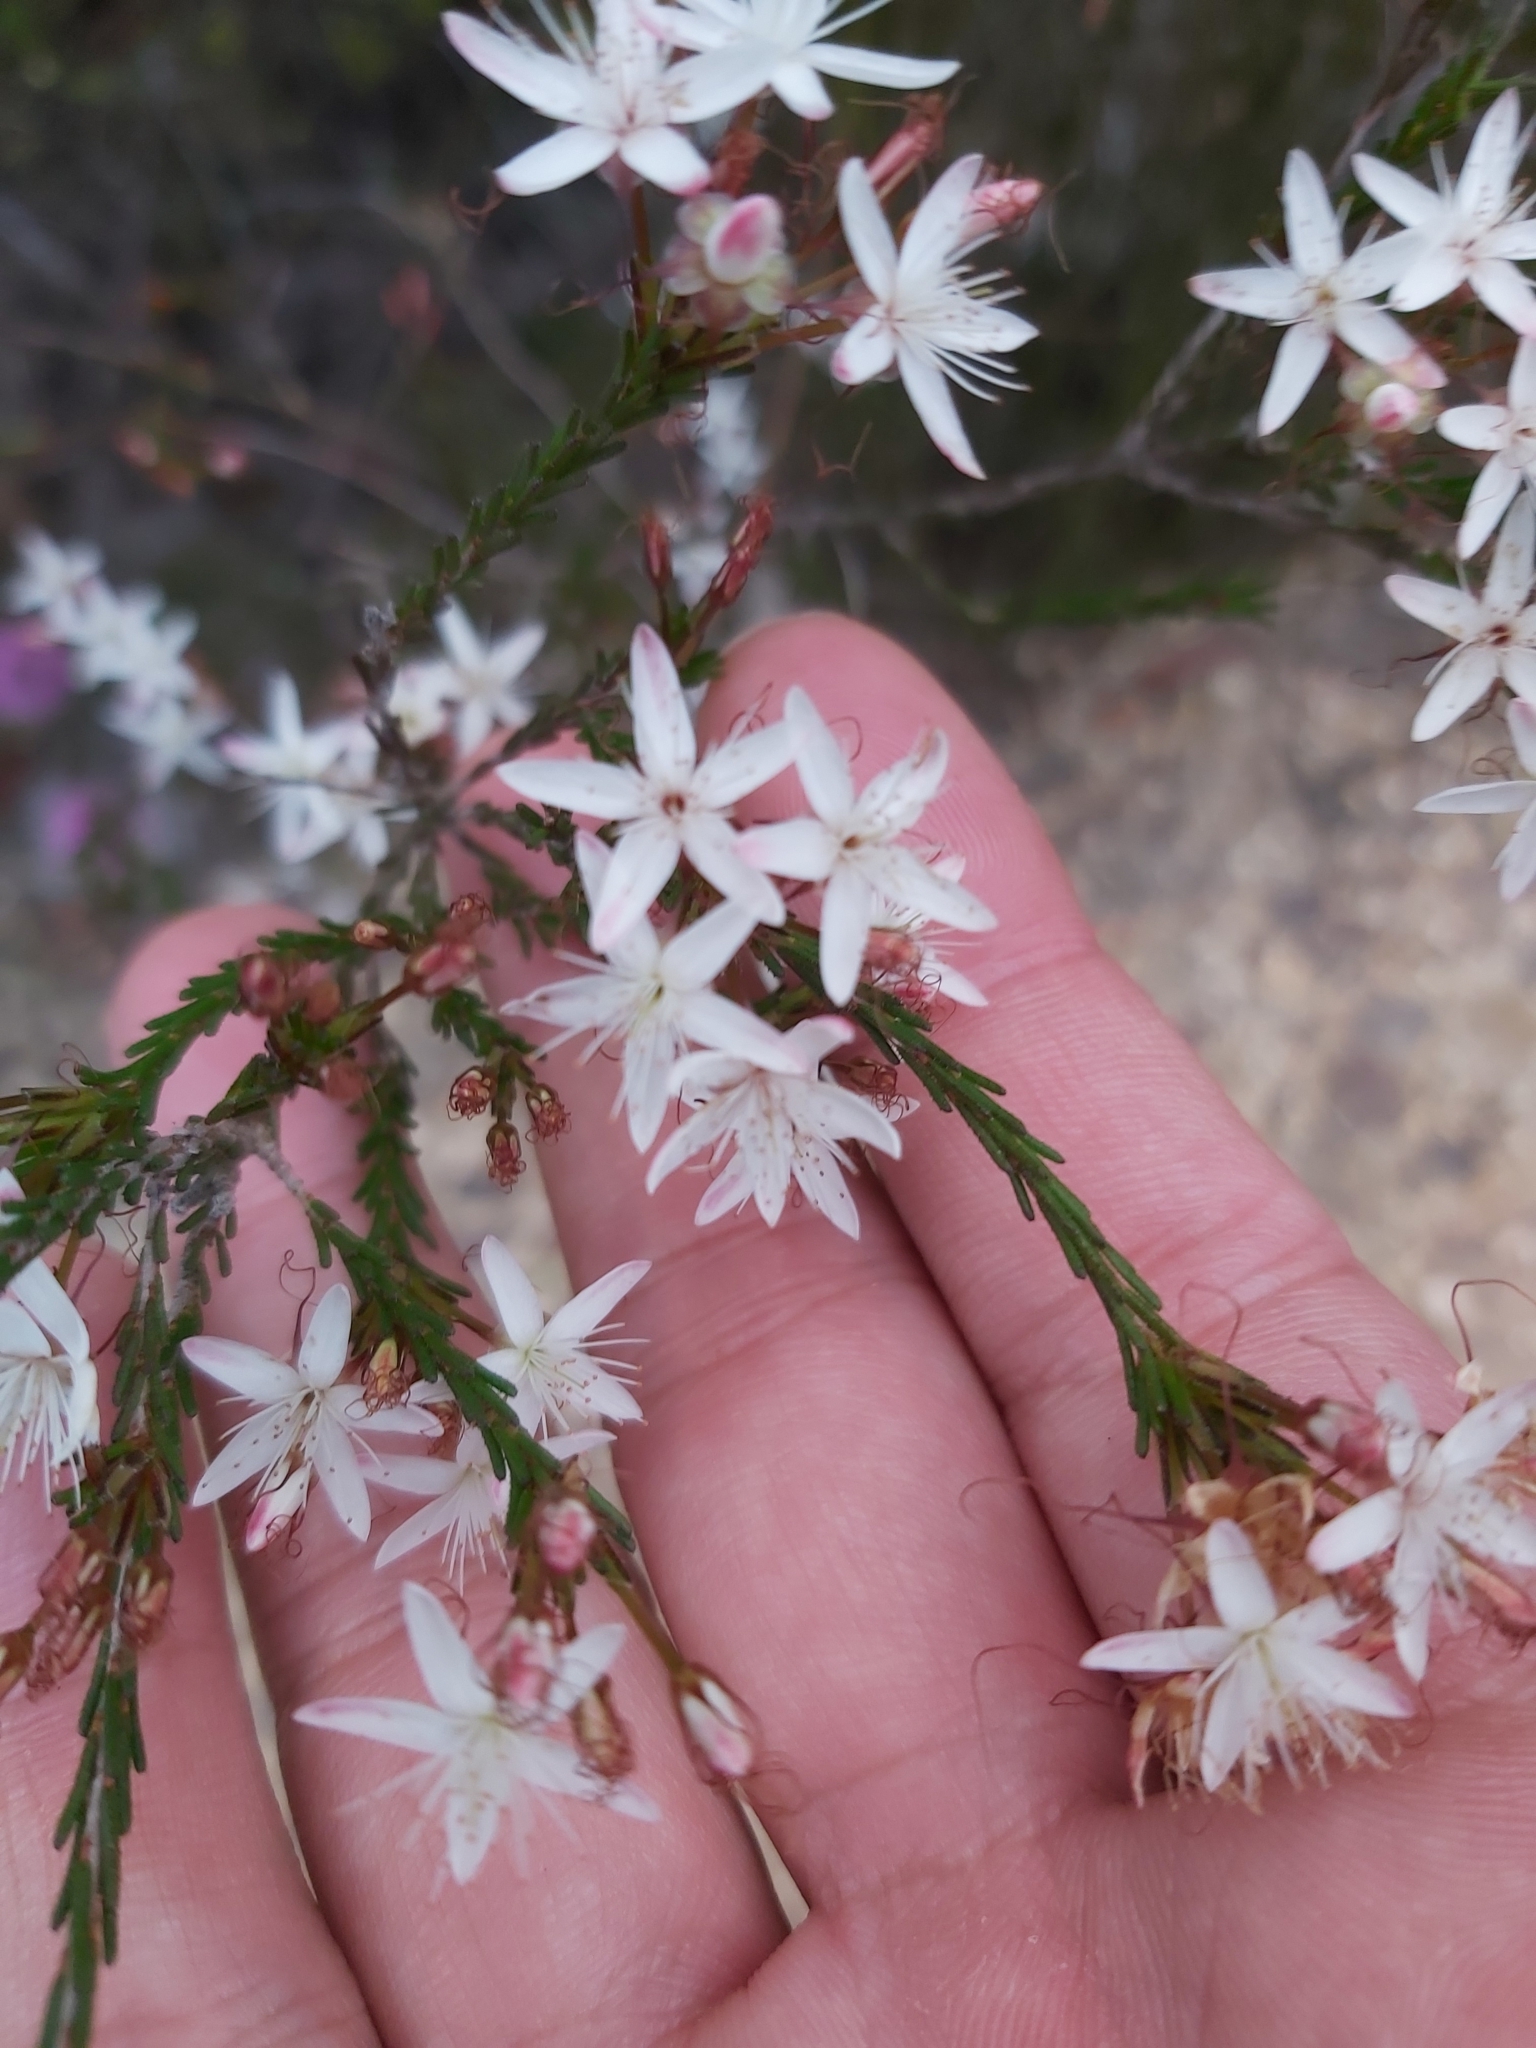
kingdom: Plantae
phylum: Tracheophyta
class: Magnoliopsida
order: Myrtales
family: Myrtaceae
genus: Calytrix
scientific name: Calytrix tetragona
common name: Common fringe myrtle
